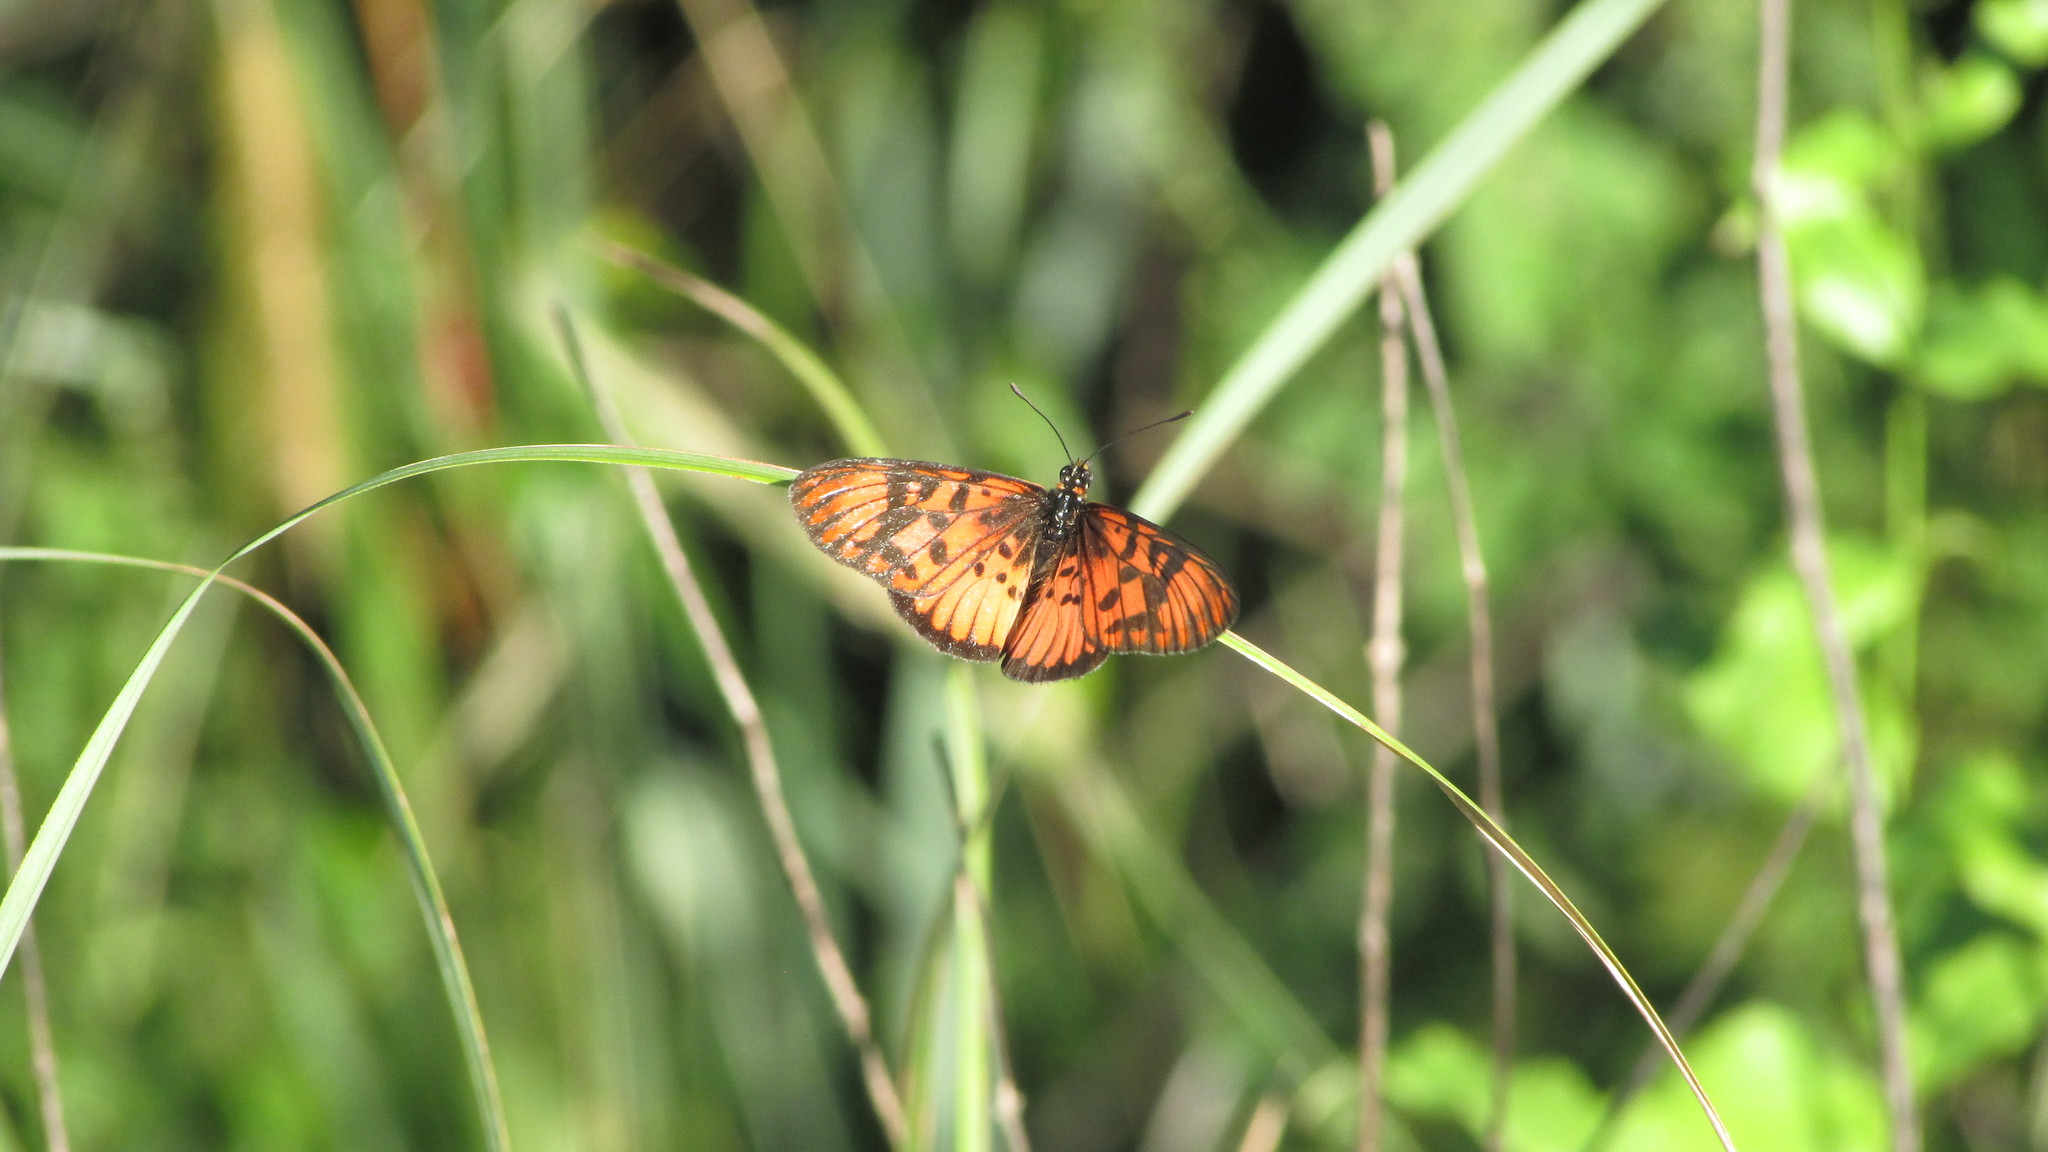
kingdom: Animalia
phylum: Arthropoda
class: Insecta
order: Lepidoptera
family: Nymphalidae
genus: Rubraea
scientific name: Rubraea
